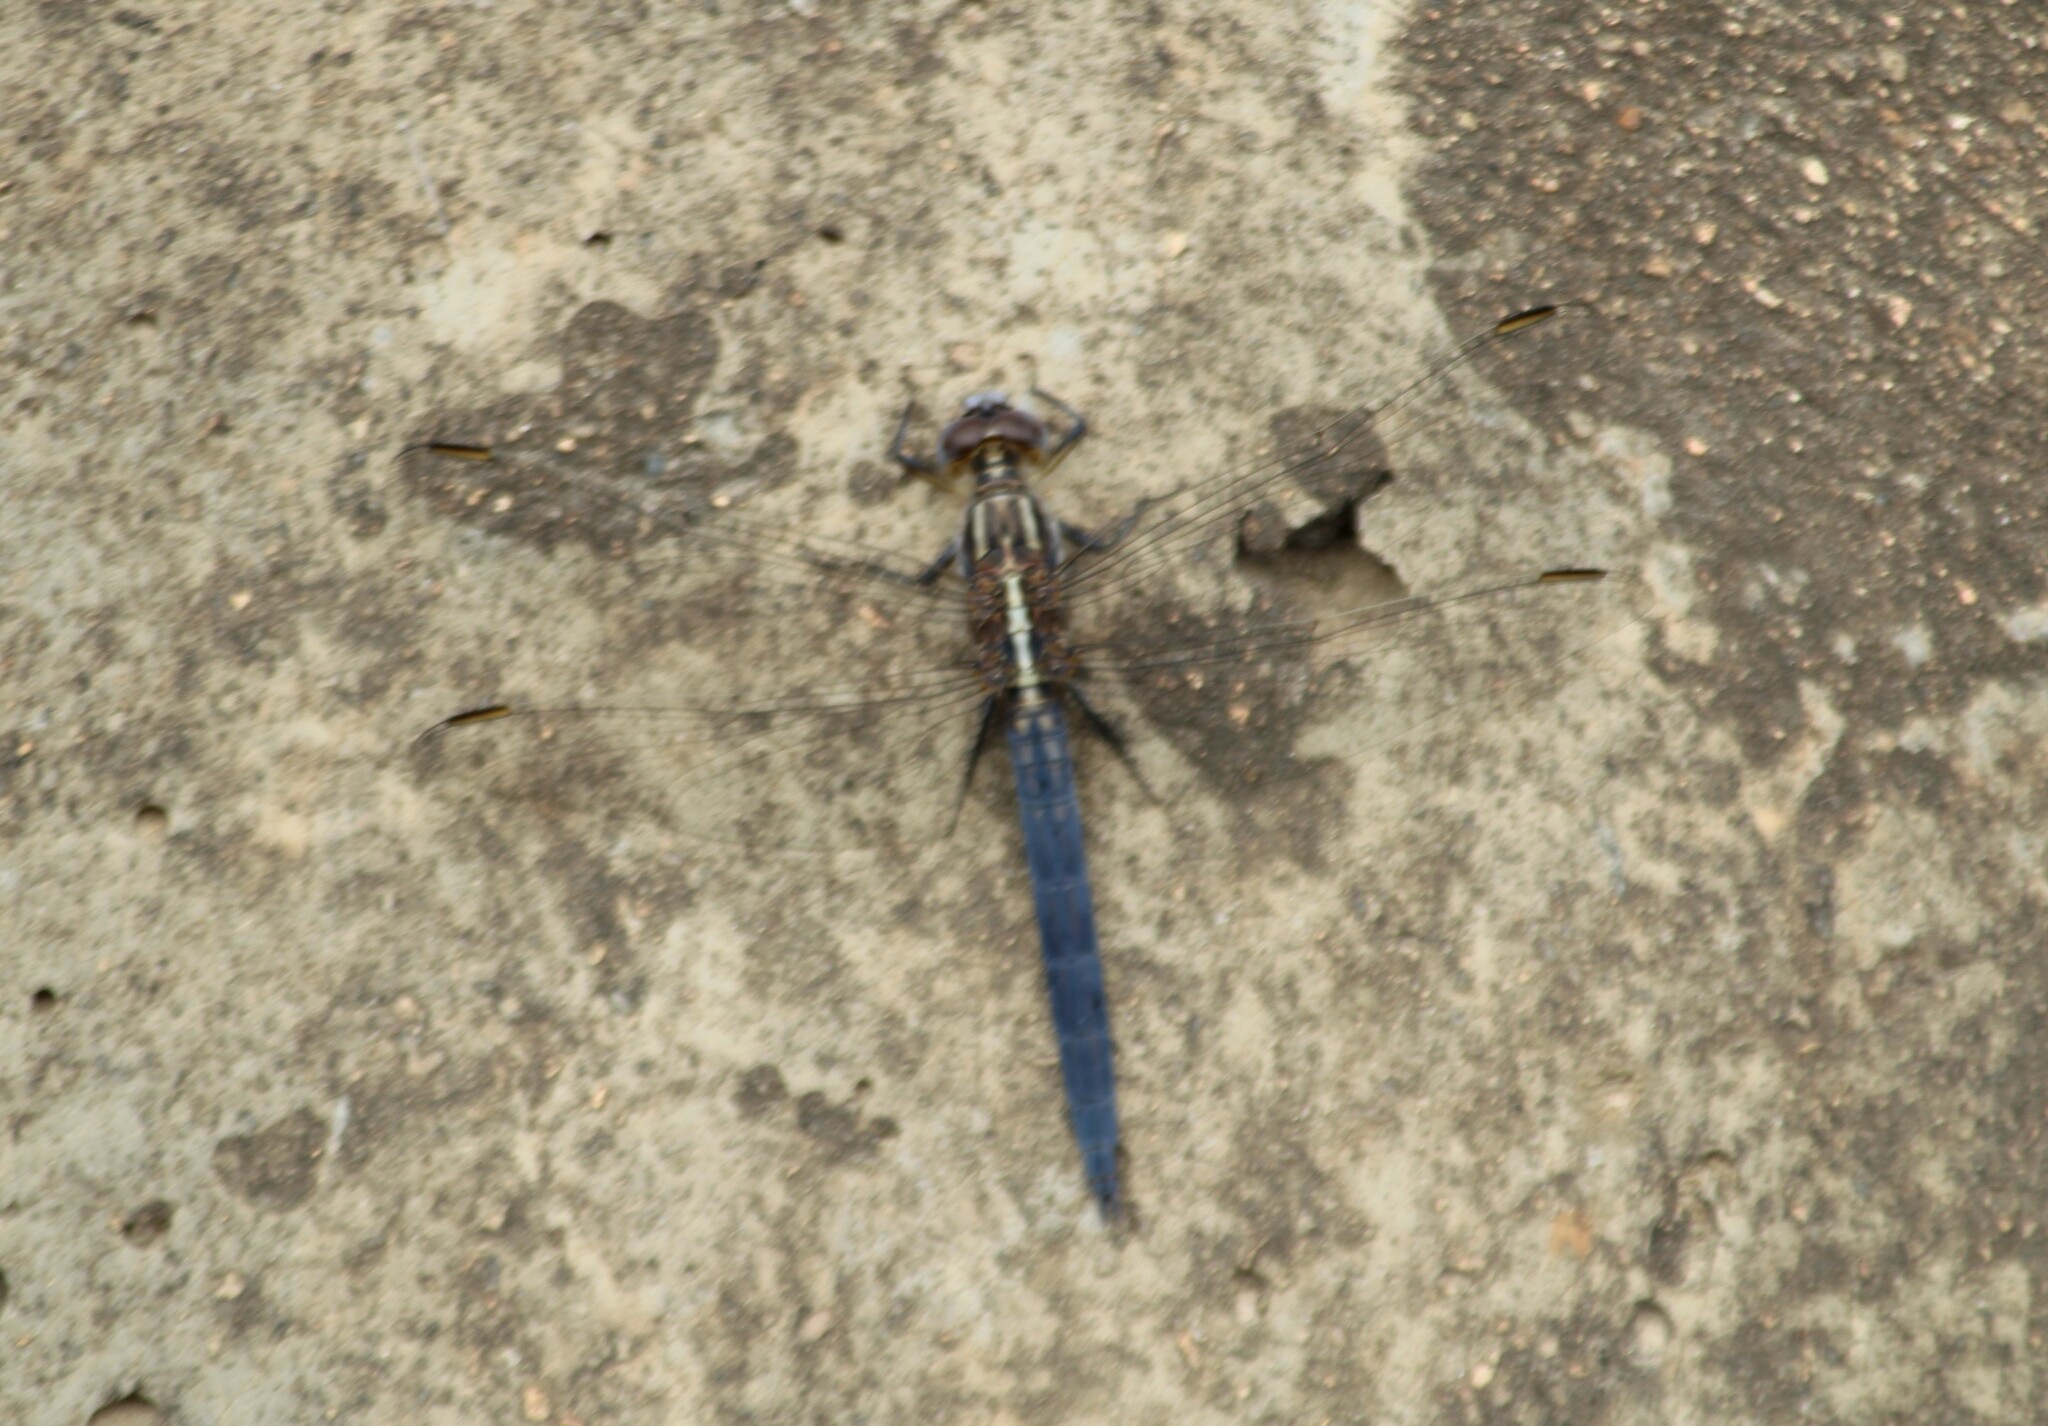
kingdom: Animalia
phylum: Arthropoda
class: Insecta
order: Odonata
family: Libellulidae
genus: Orthetrum
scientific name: Orthetrum luzonicum
